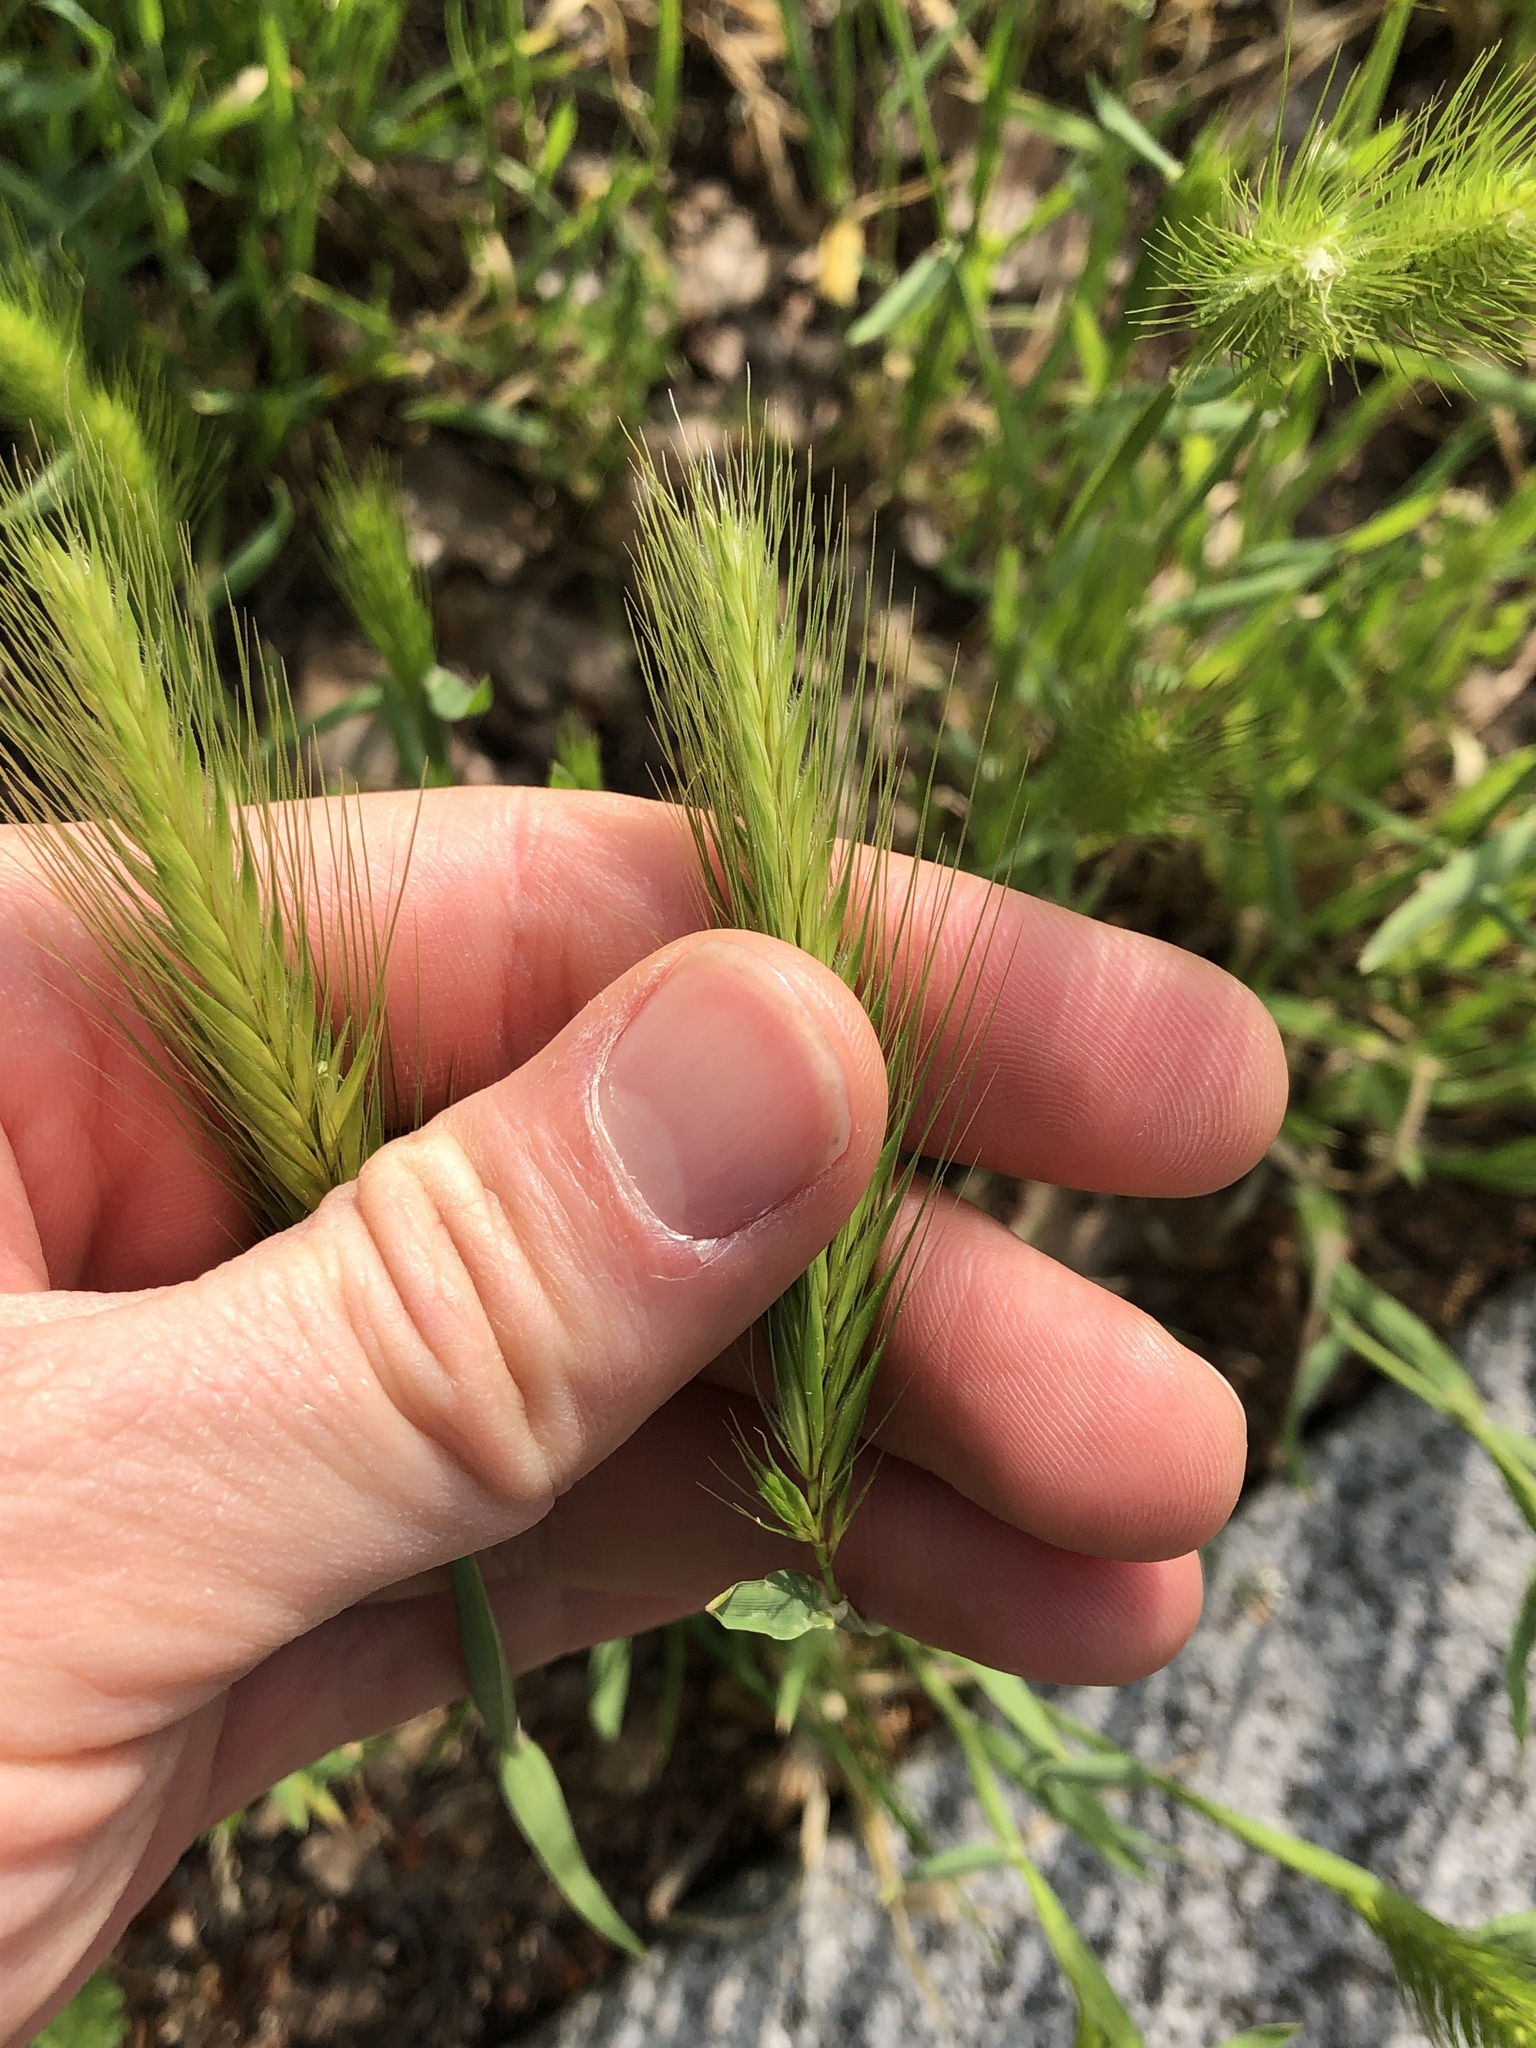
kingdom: Plantae
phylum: Tracheophyta
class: Liliopsida
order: Poales
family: Poaceae
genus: Hordeum
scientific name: Hordeum murinum
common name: Wall barley
